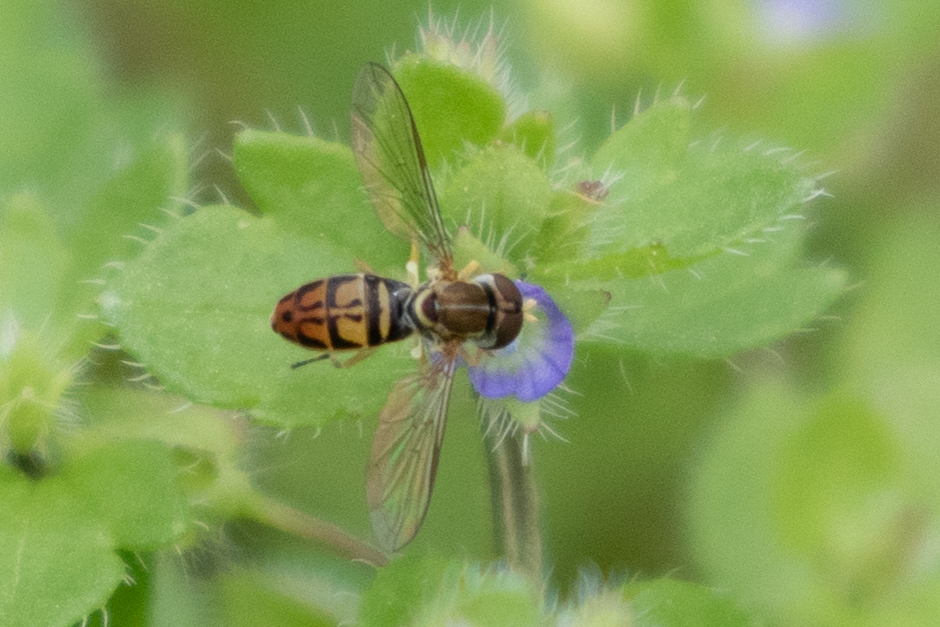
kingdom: Animalia
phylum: Arthropoda
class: Insecta
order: Diptera
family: Syrphidae
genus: Toxomerus
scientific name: Toxomerus marginatus
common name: Syrphid fly
